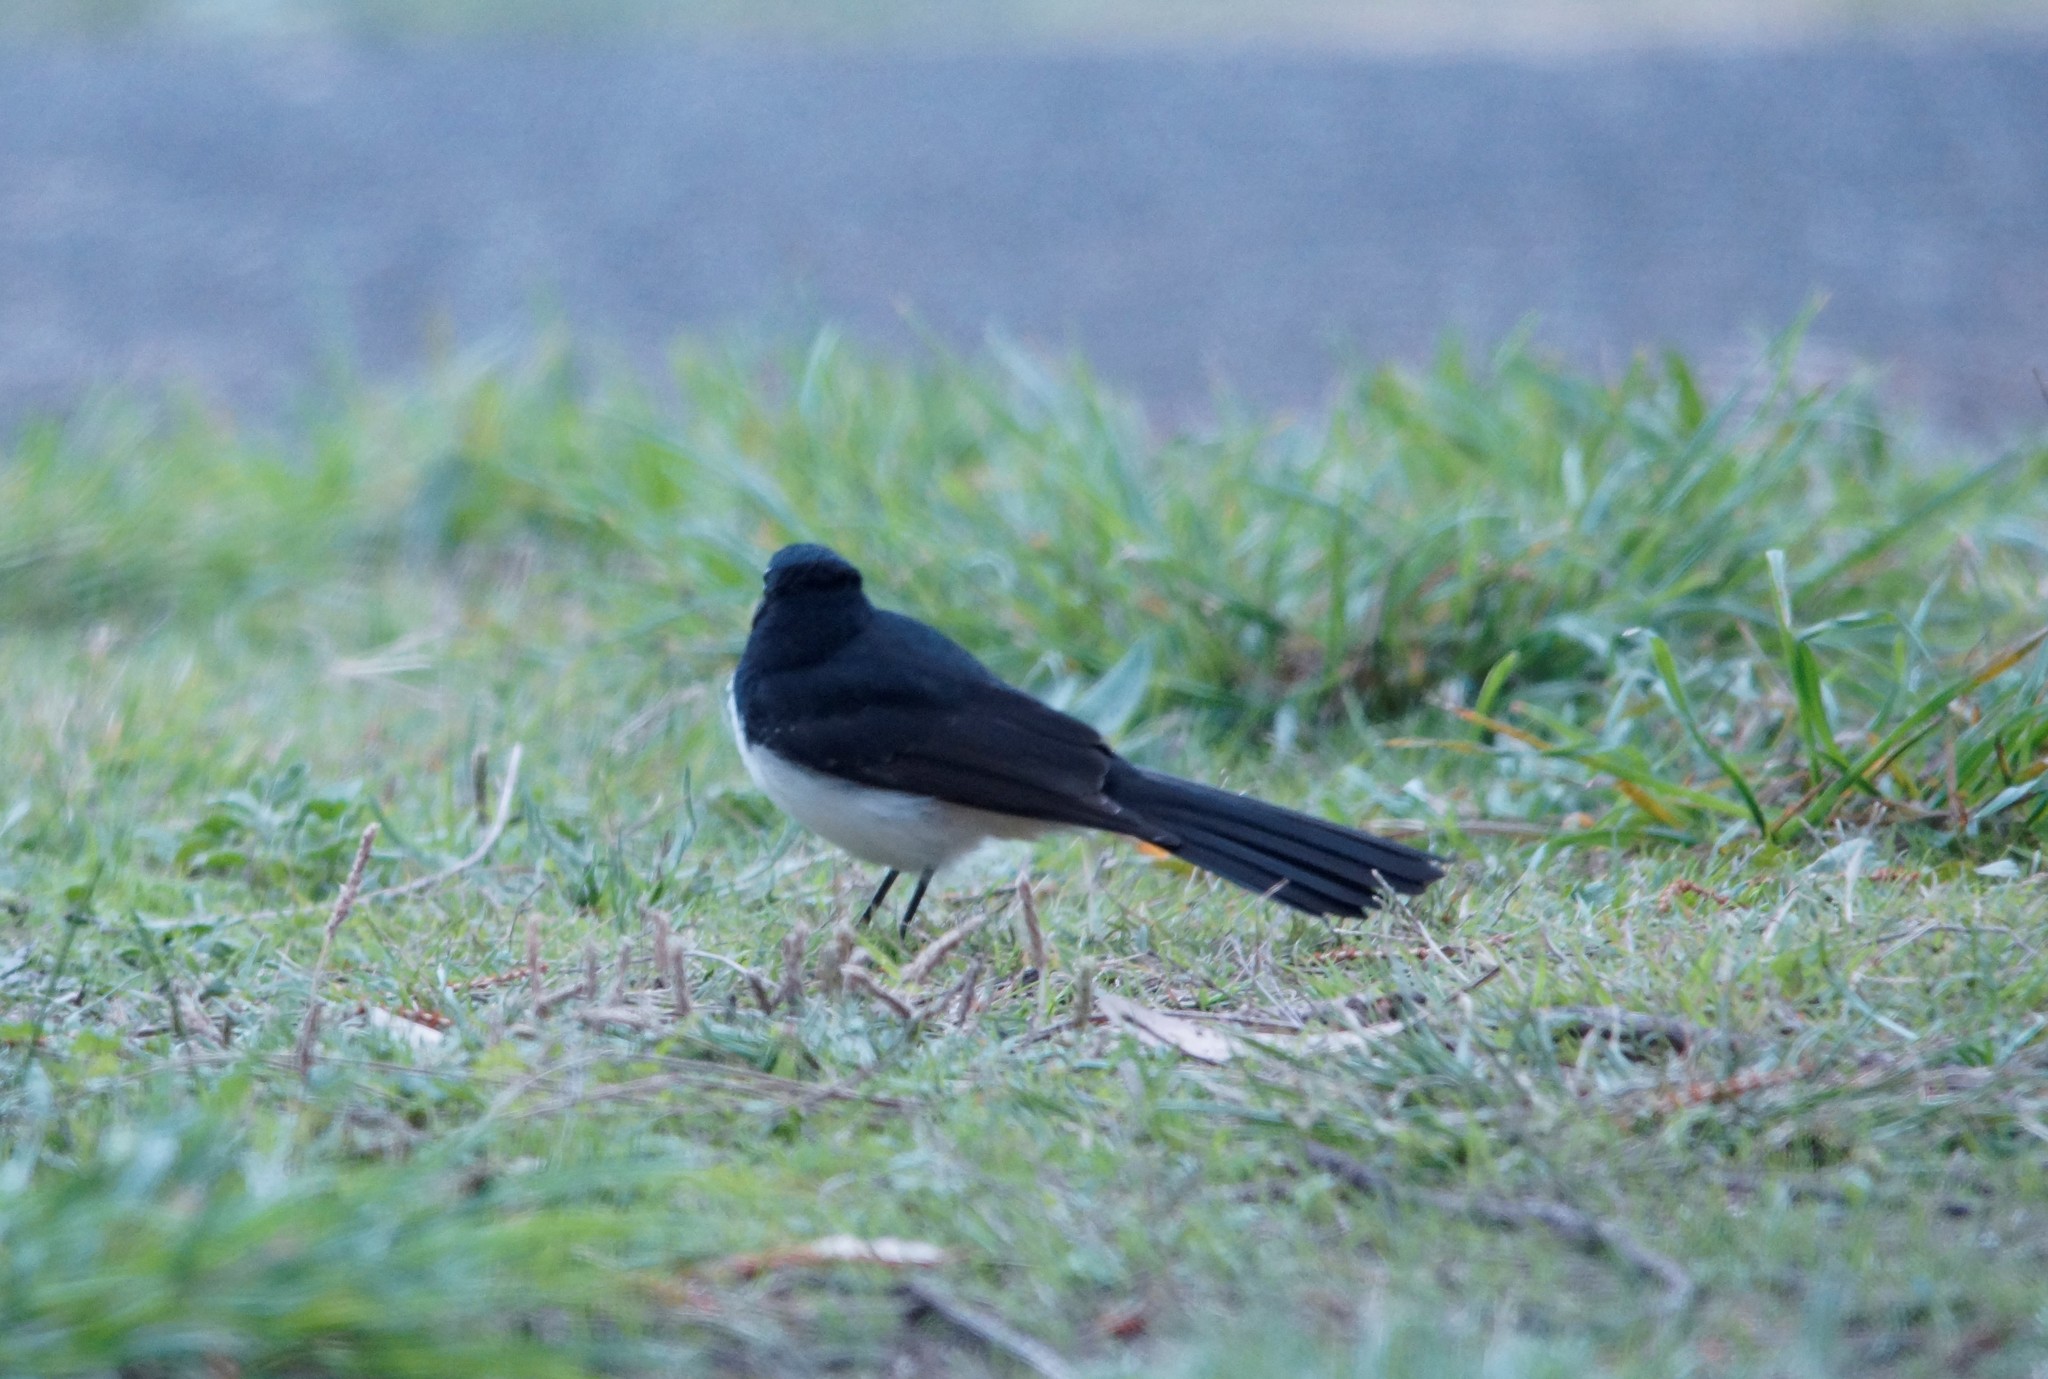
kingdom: Animalia
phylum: Chordata
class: Aves
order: Passeriformes
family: Rhipiduridae
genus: Rhipidura
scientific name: Rhipidura leucophrys
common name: Willie wagtail
